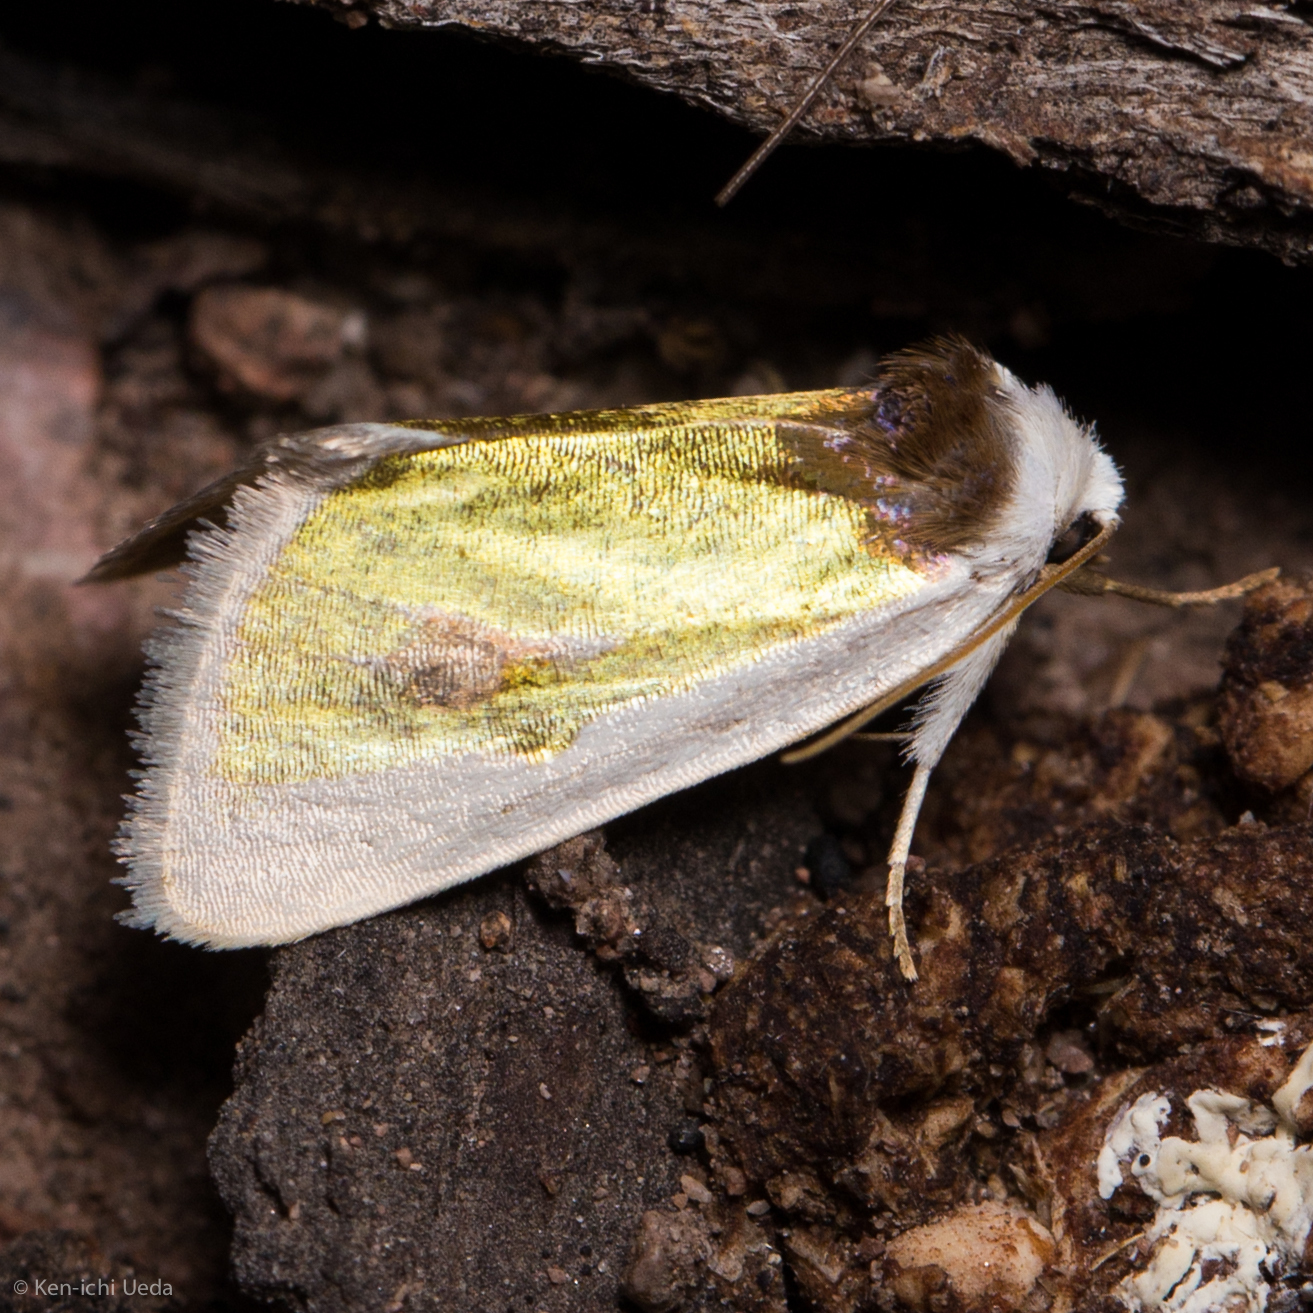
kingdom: Animalia
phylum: Arthropoda
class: Insecta
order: Lepidoptera
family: Noctuidae
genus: Neumoegenia
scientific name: Neumoegenia poetica
